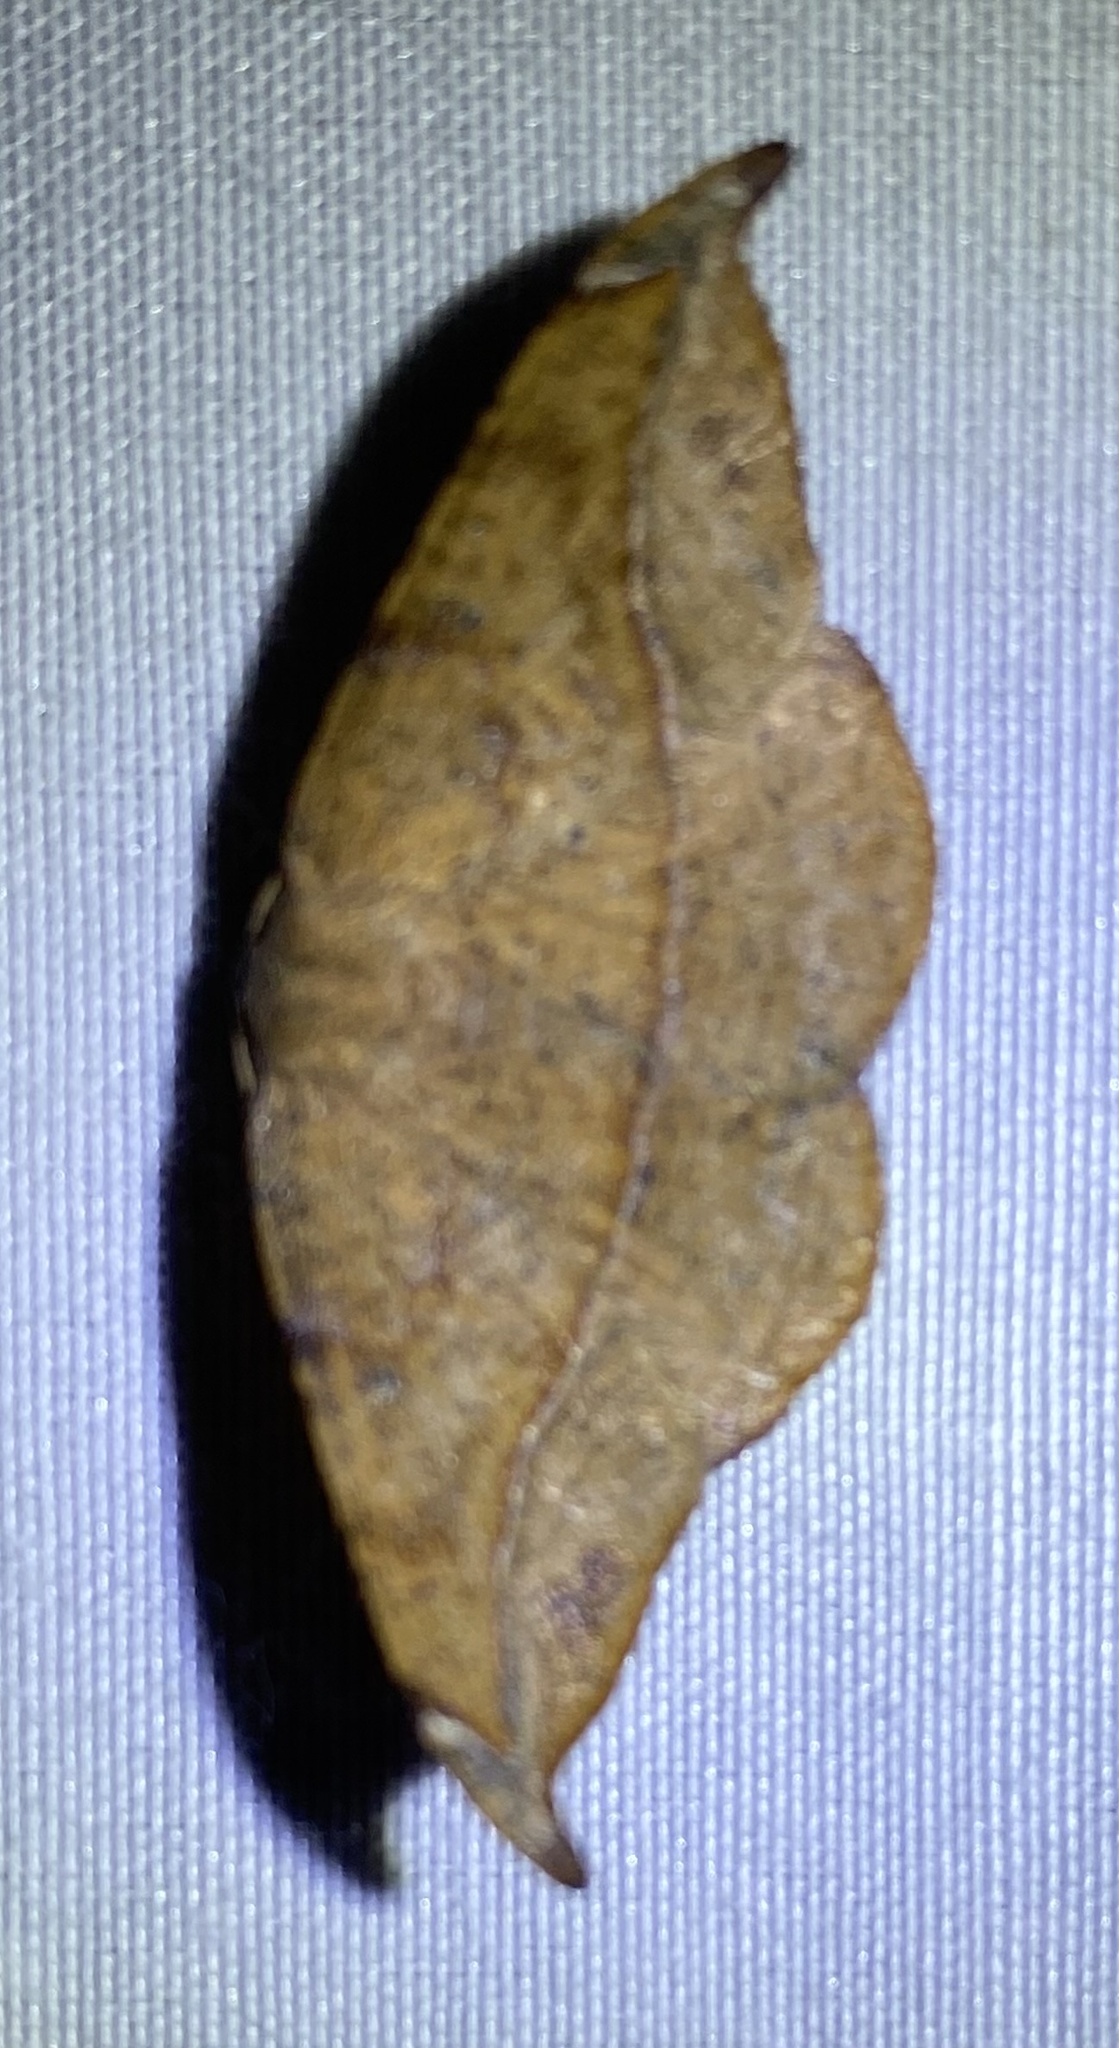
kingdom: Animalia
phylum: Arthropoda
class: Insecta
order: Lepidoptera
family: Geometridae
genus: Patalene
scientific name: Patalene olyzonaria
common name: Juniper geometer moth
